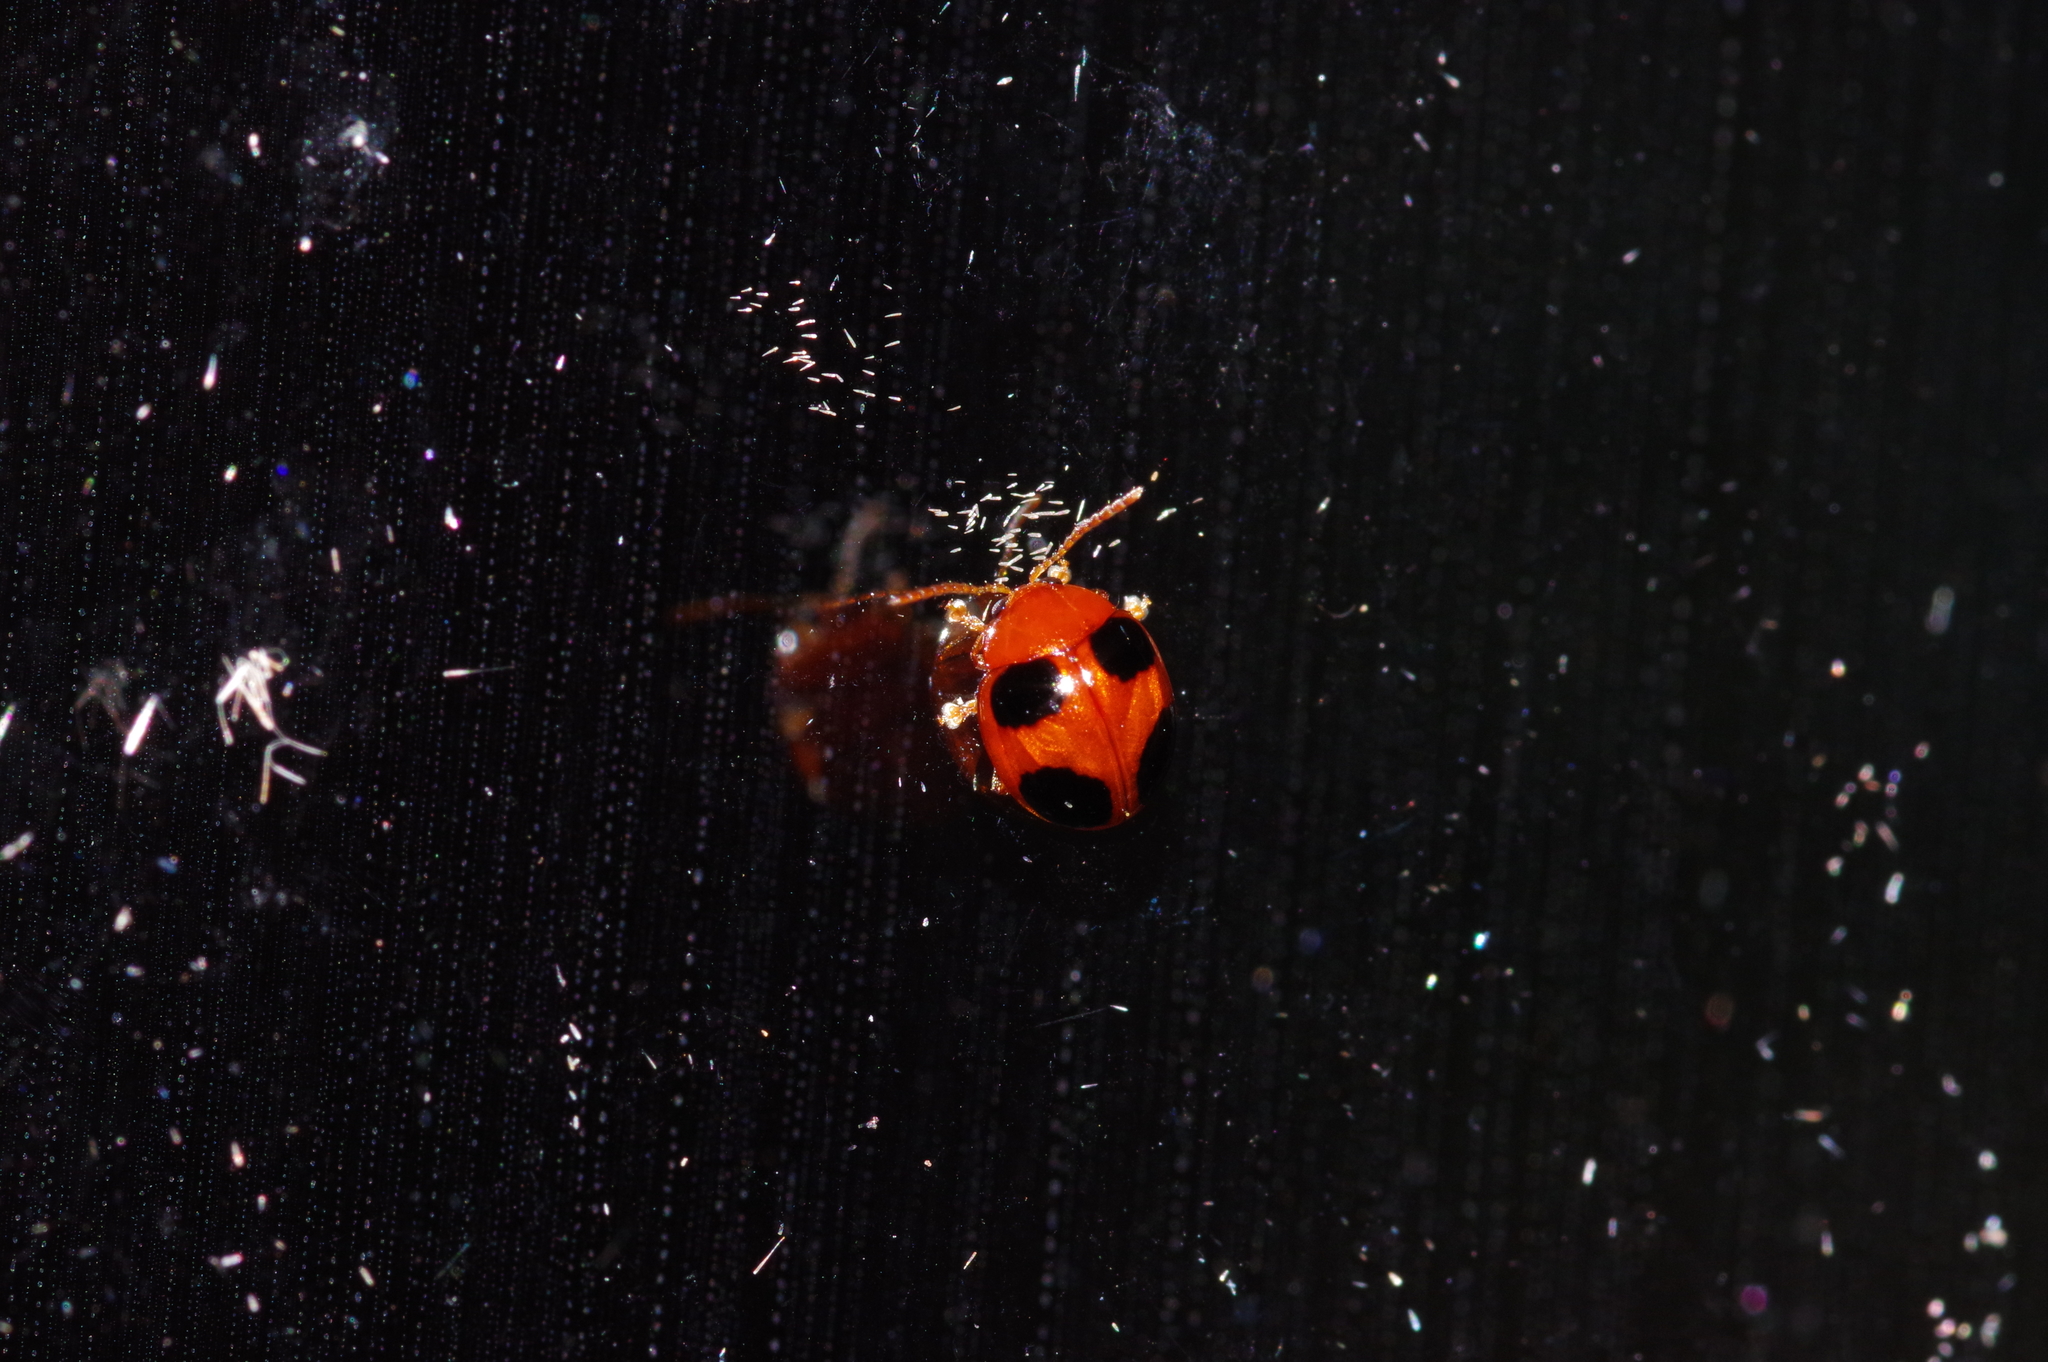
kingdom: Animalia
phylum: Arthropoda
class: Insecta
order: Coleoptera
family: Chrysomelidae
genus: Sphaeroderma
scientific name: Sphaeroderma
